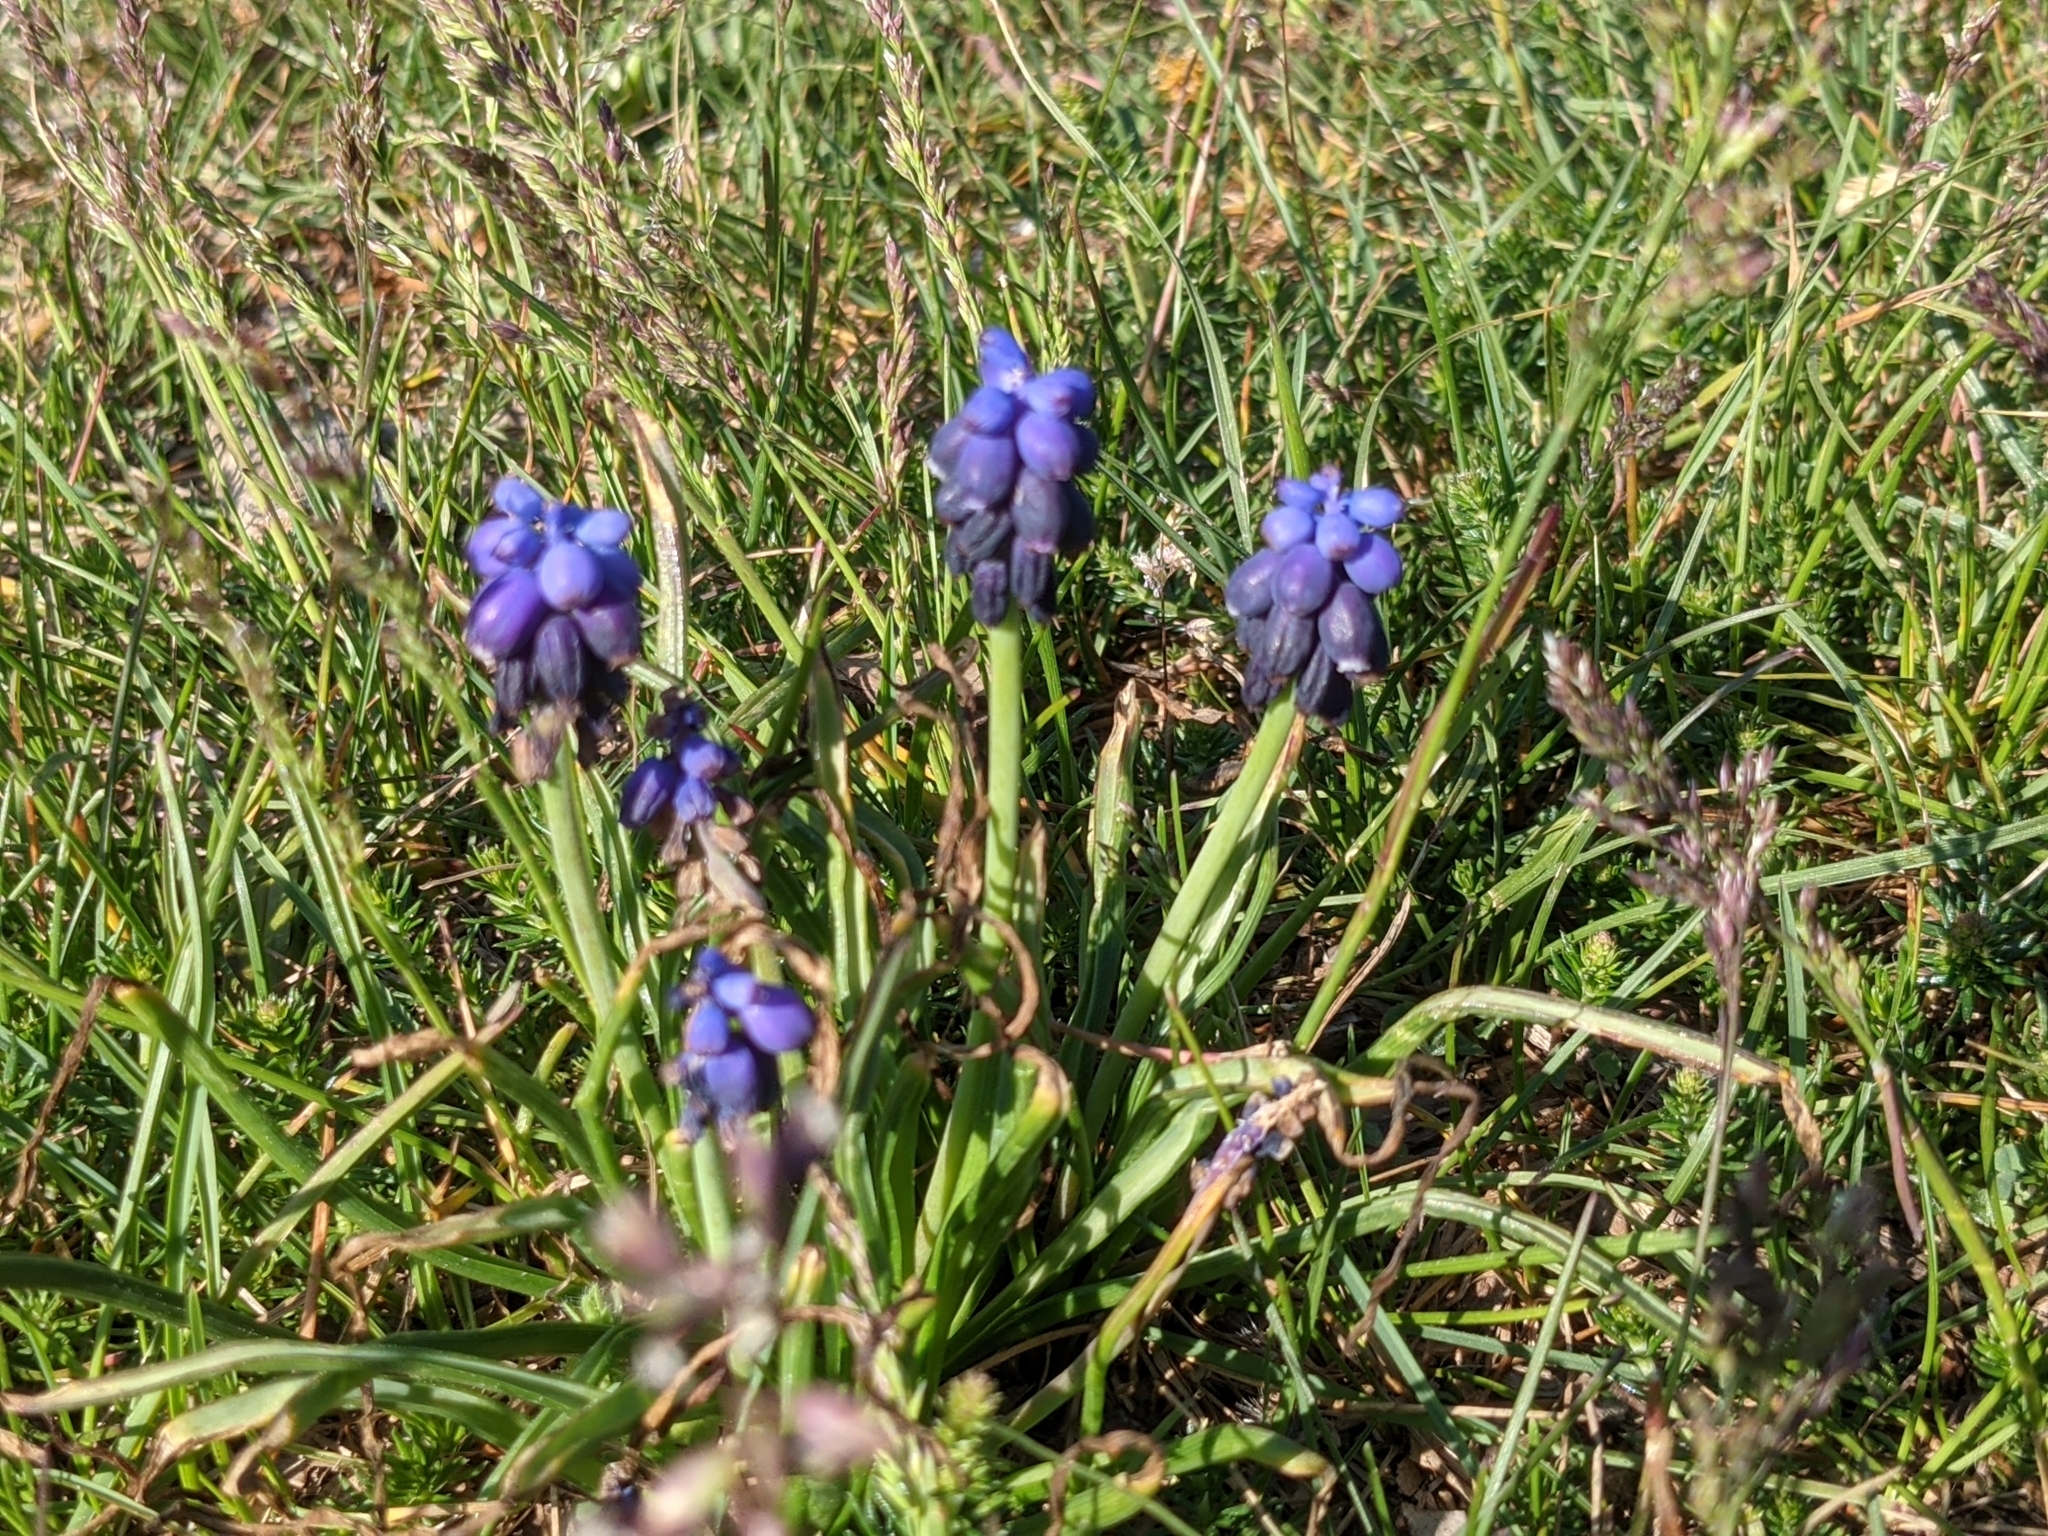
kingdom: Plantae
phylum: Tracheophyta
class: Liliopsida
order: Asparagales
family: Asparagaceae
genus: Muscari
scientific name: Muscari neglectum
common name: Grape-hyacinth
